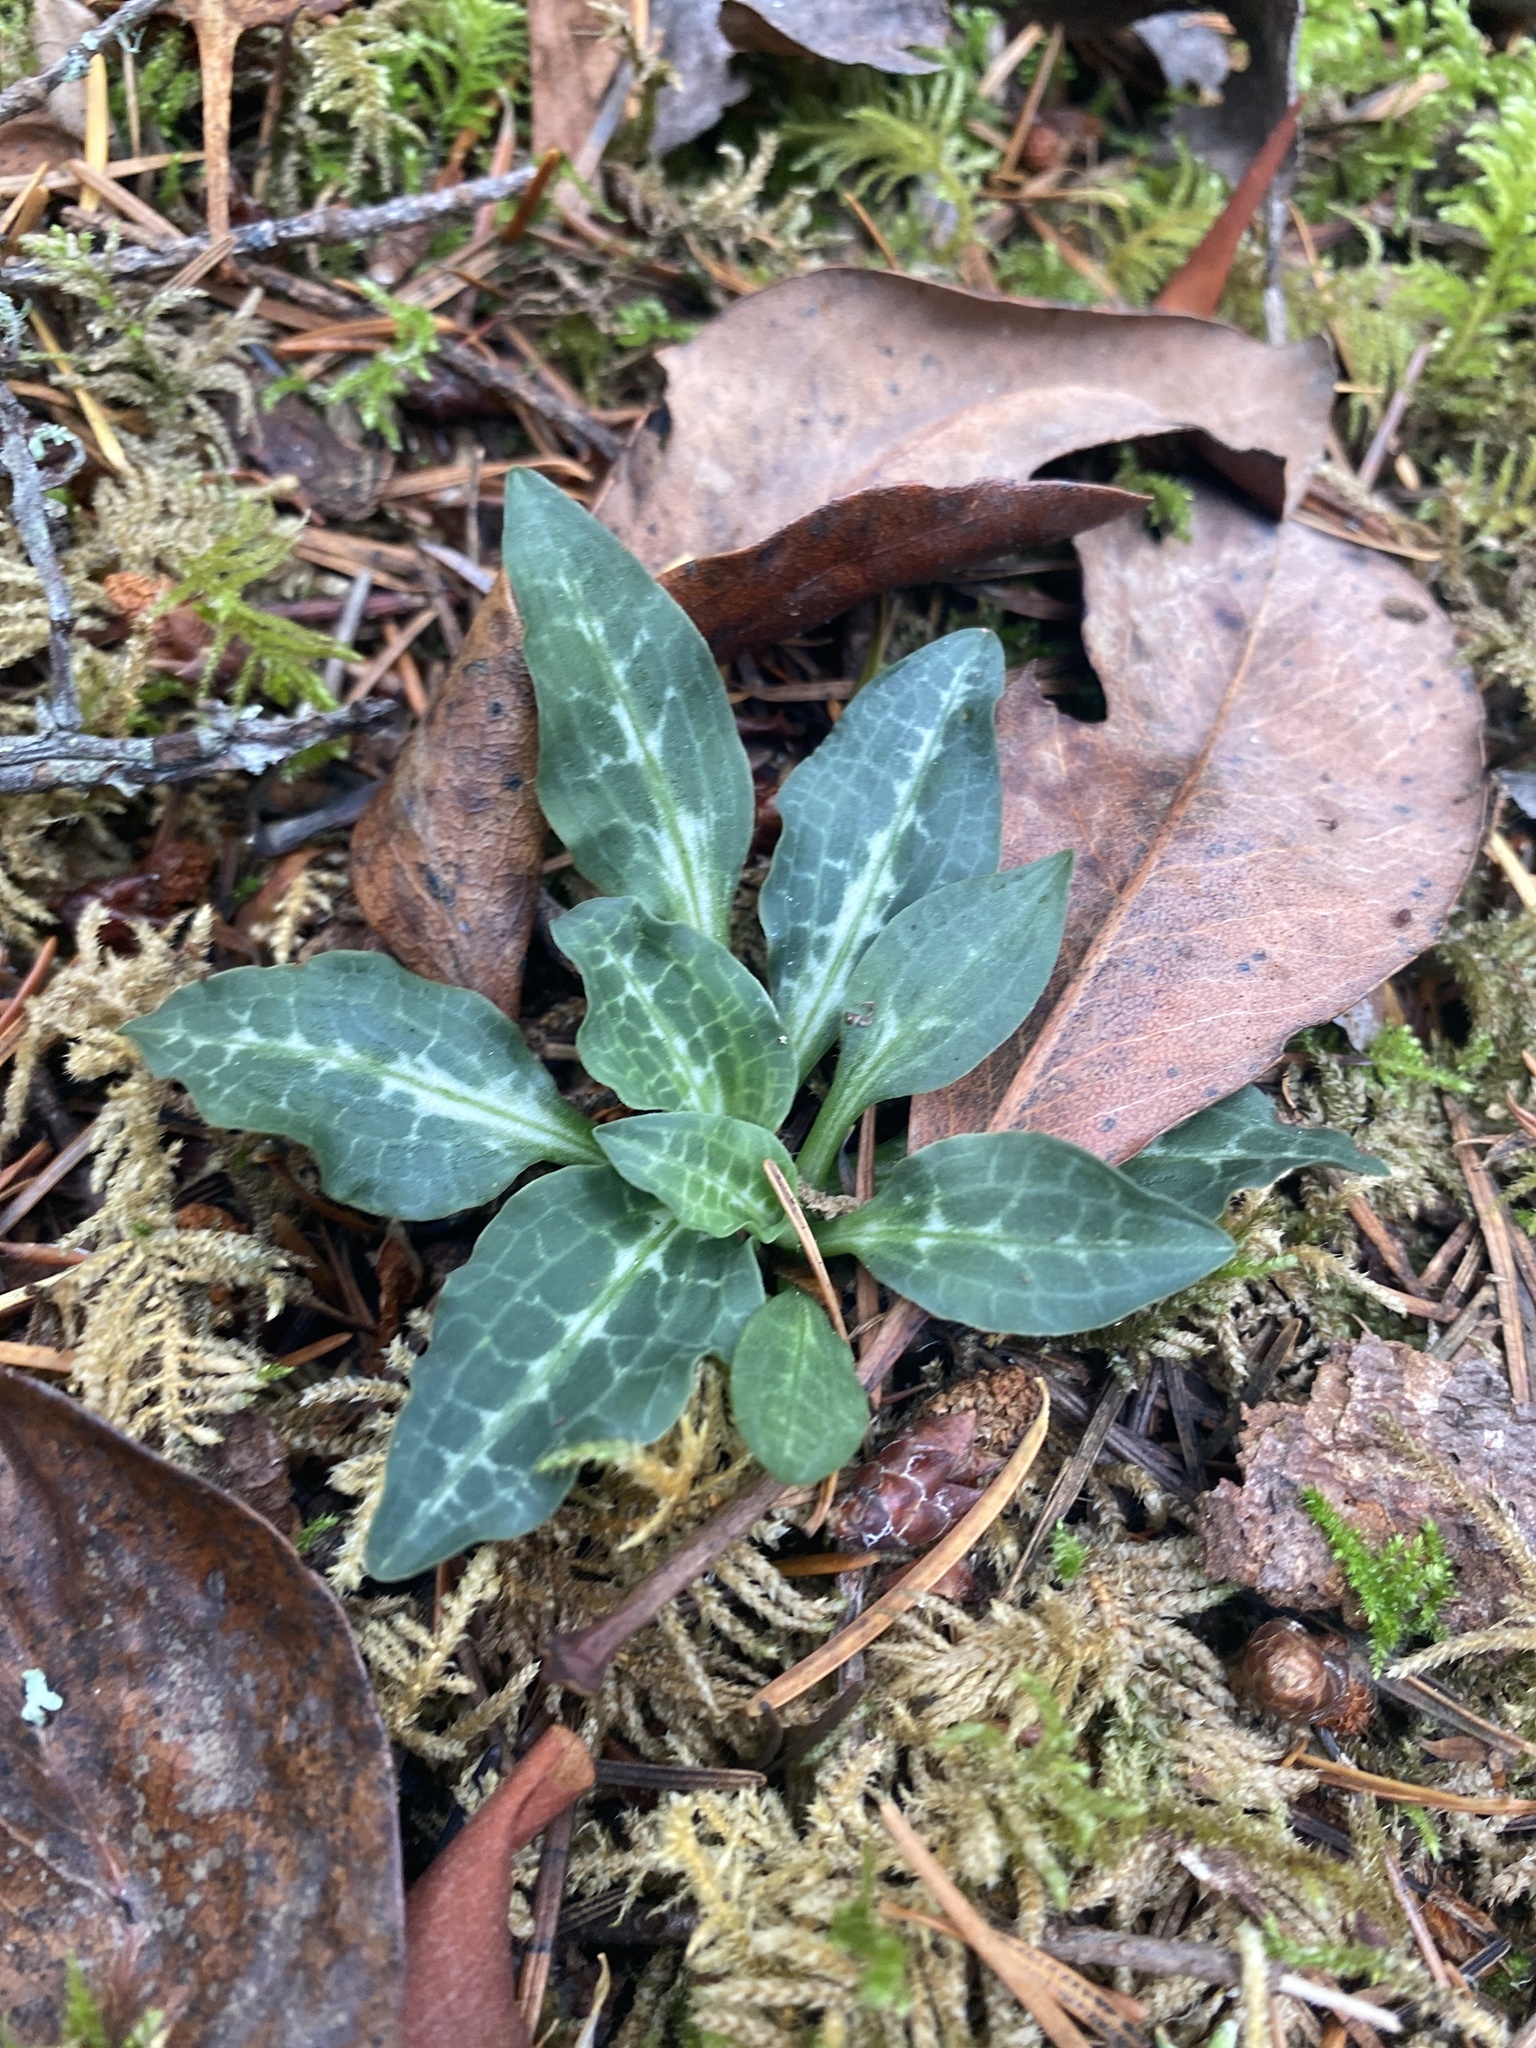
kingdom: Plantae
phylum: Tracheophyta
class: Liliopsida
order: Asparagales
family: Orchidaceae
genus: Goodyera
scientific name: Goodyera oblongifolia
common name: Giant rattlesnake-plantain
